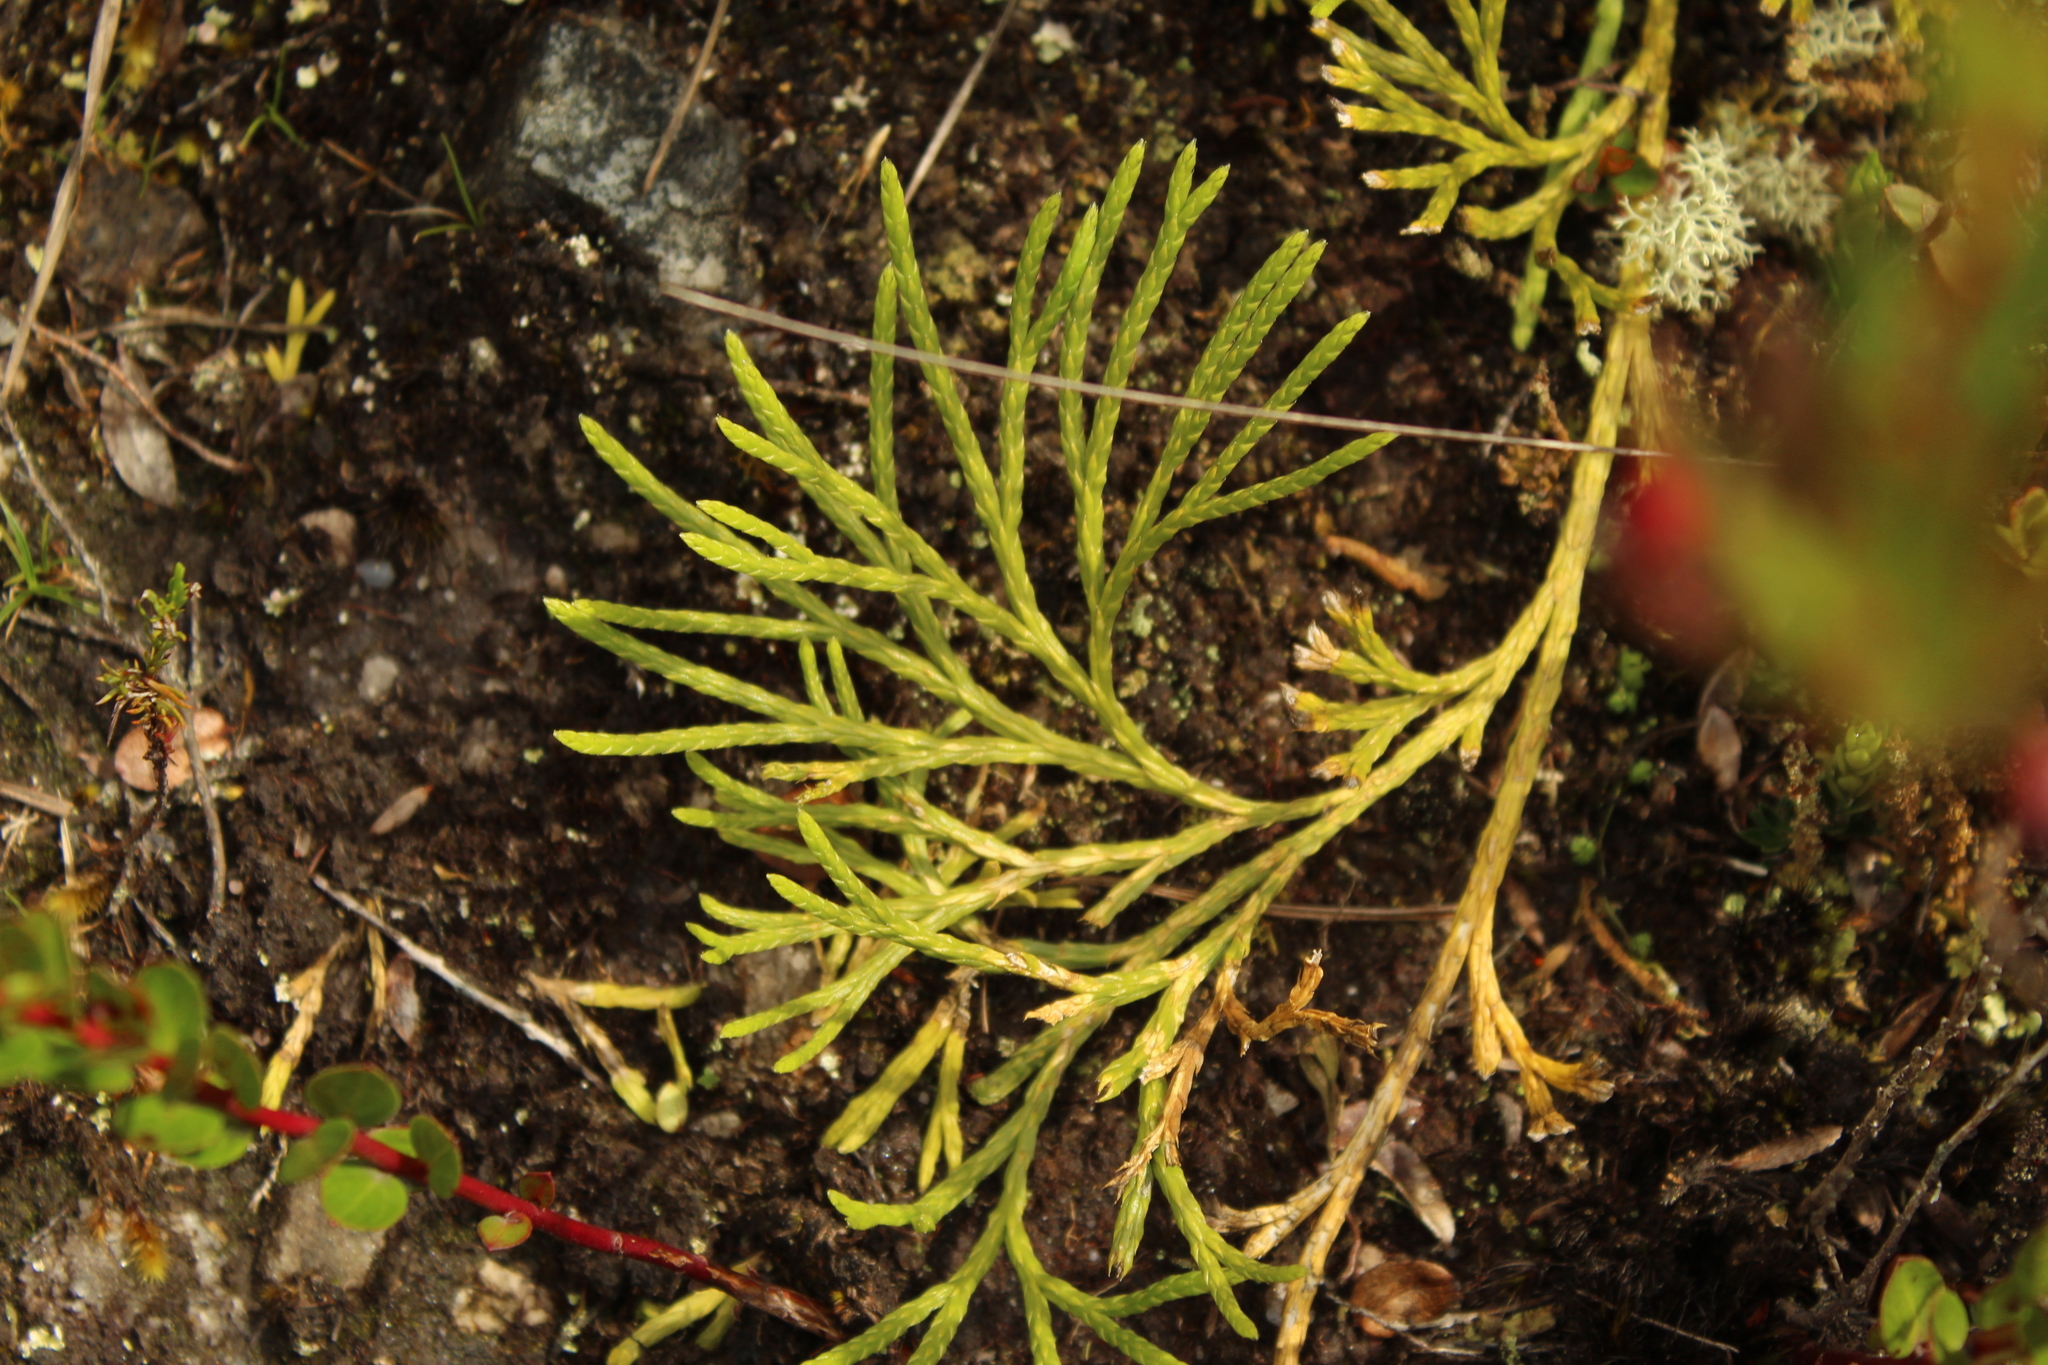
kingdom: Plantae
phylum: Tracheophyta
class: Lycopodiopsida
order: Lycopodiales
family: Lycopodiaceae
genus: Diphasiastrum
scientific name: Diphasiastrum thyoides
